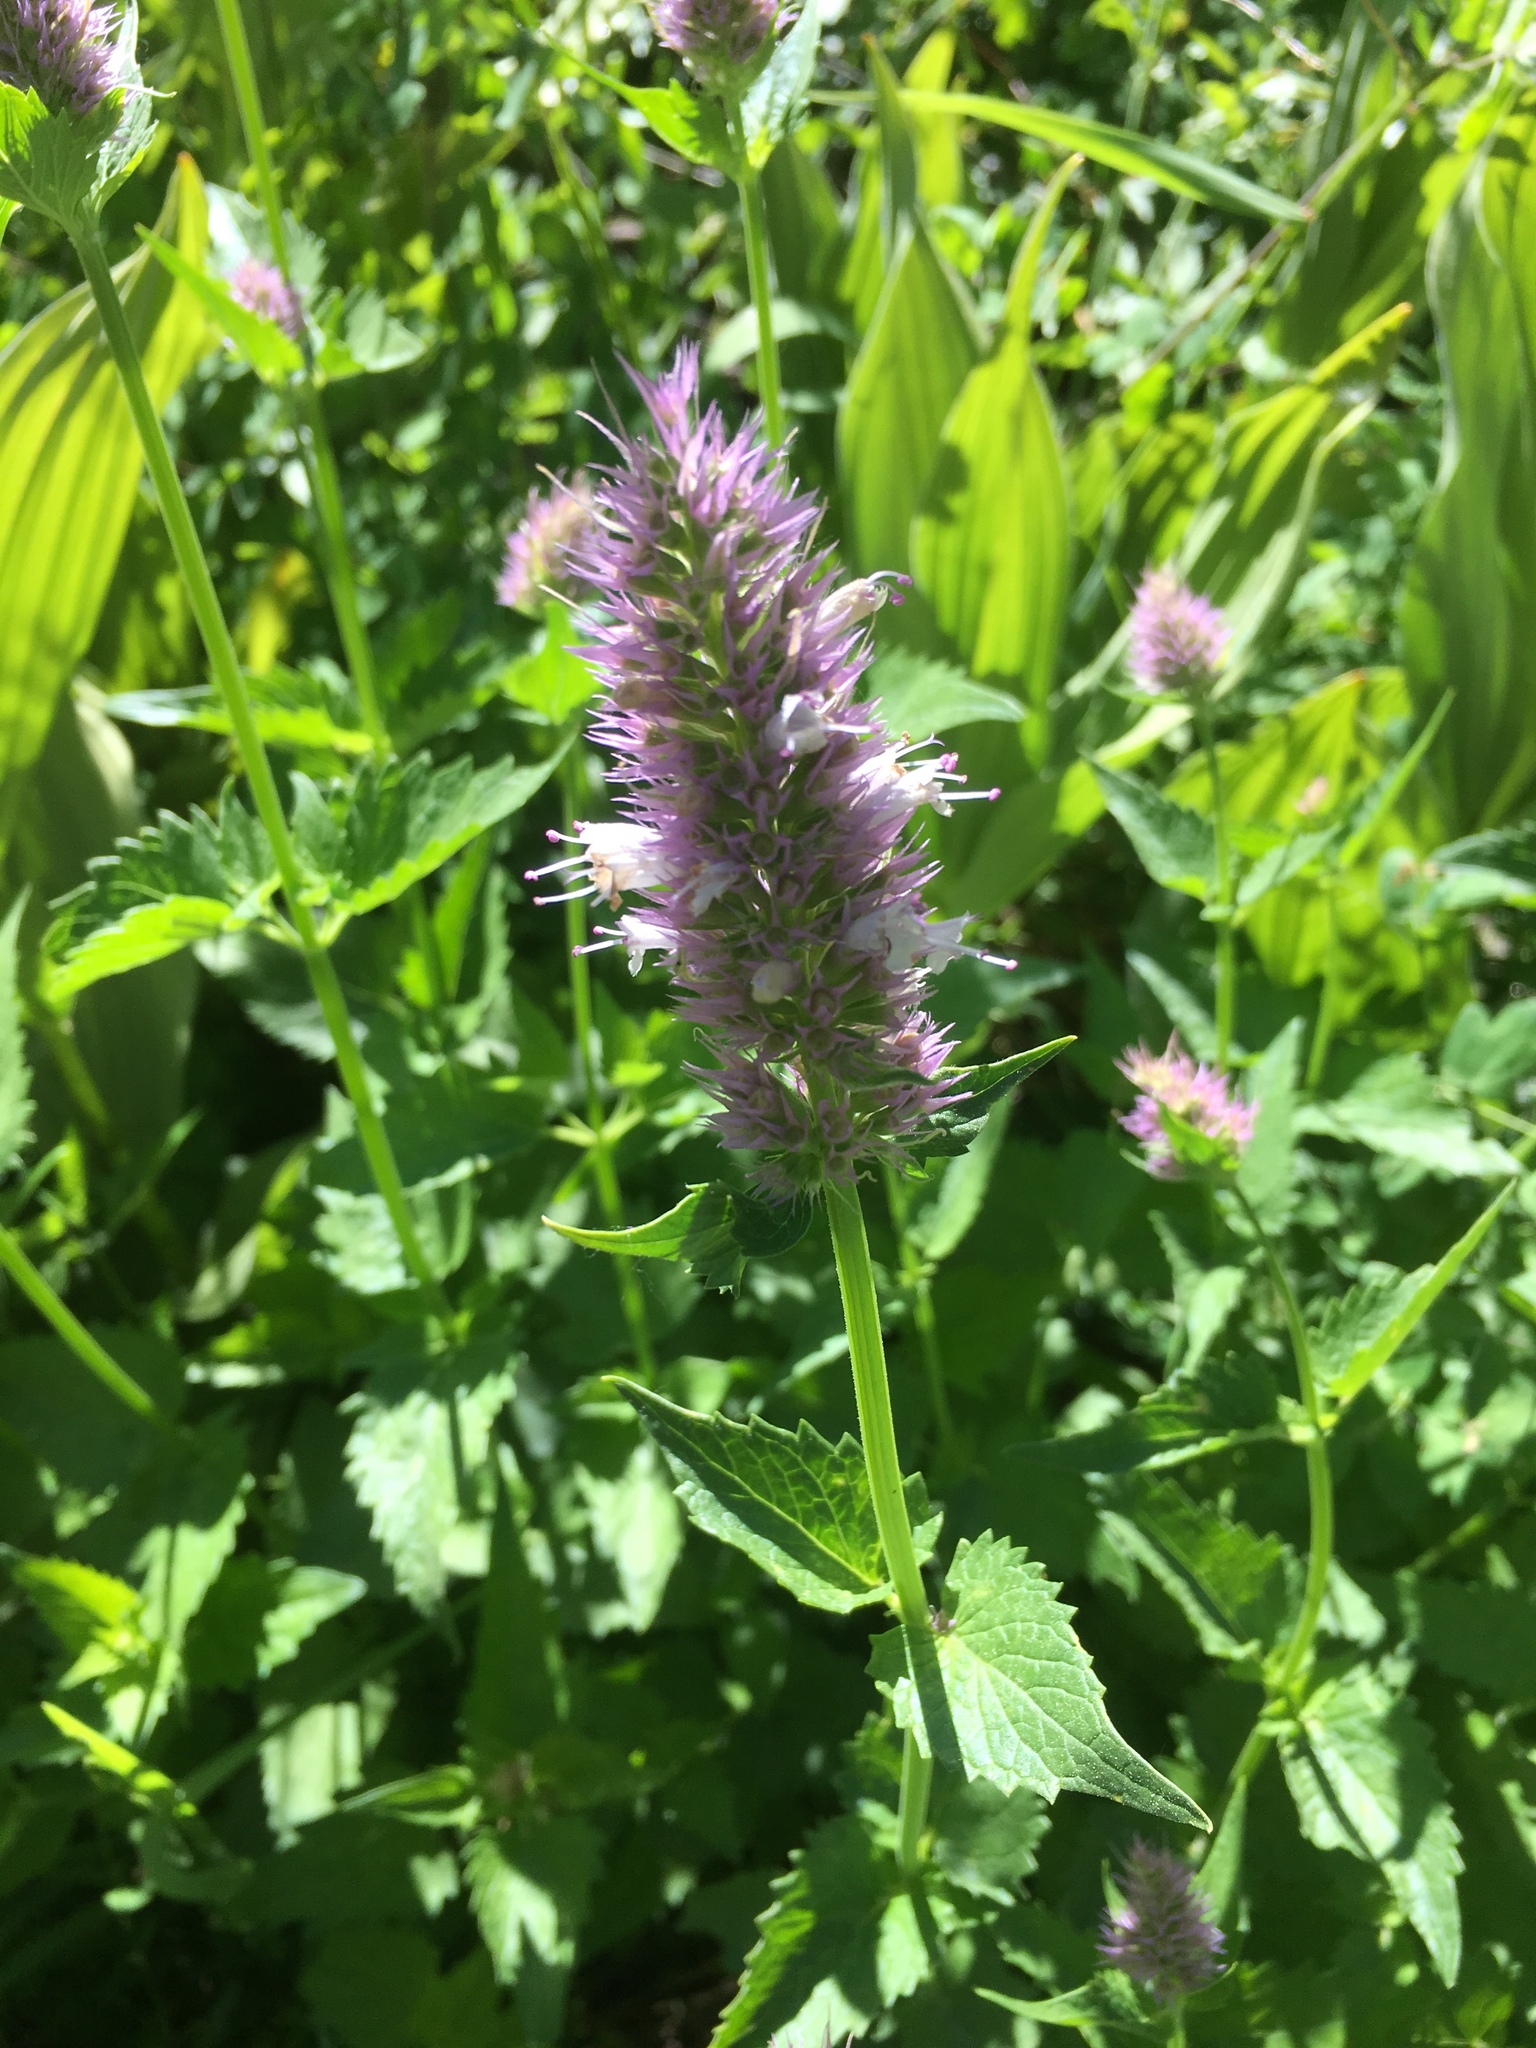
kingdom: Plantae
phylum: Tracheophyta
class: Magnoliopsida
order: Lamiales
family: Lamiaceae
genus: Agastache
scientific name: Agastache urticifolia
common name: Horsemint giant hyssop
